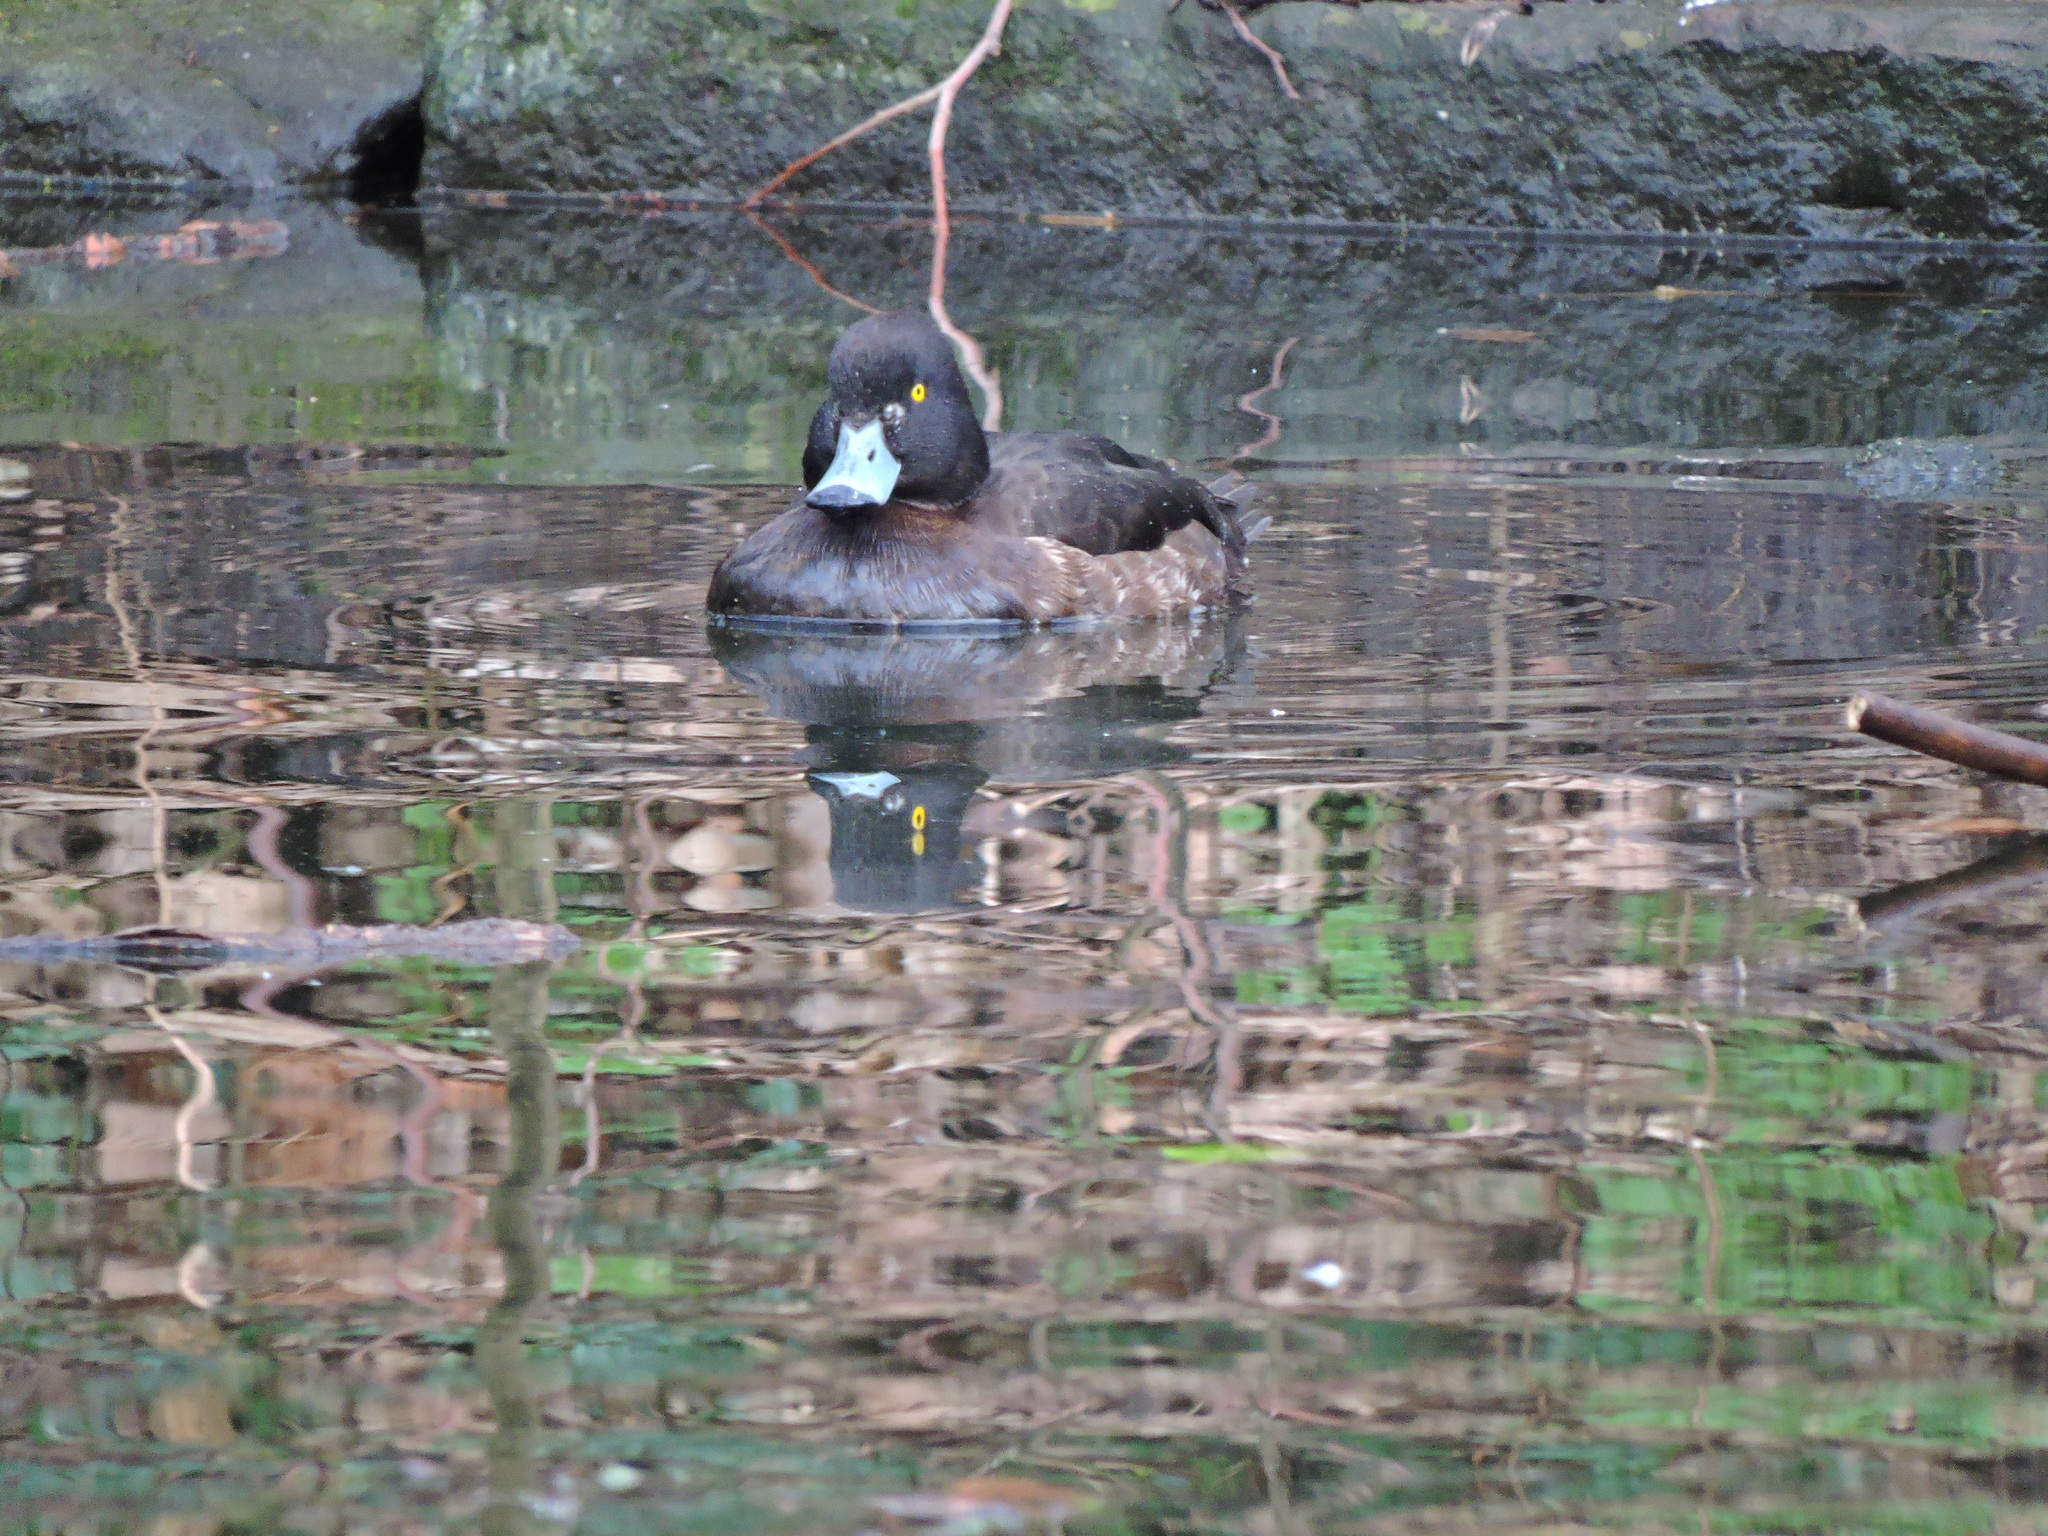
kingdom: Animalia
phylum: Chordata
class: Aves
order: Anseriformes
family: Anatidae
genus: Aythya
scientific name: Aythya fuligula
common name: Tufted duck
